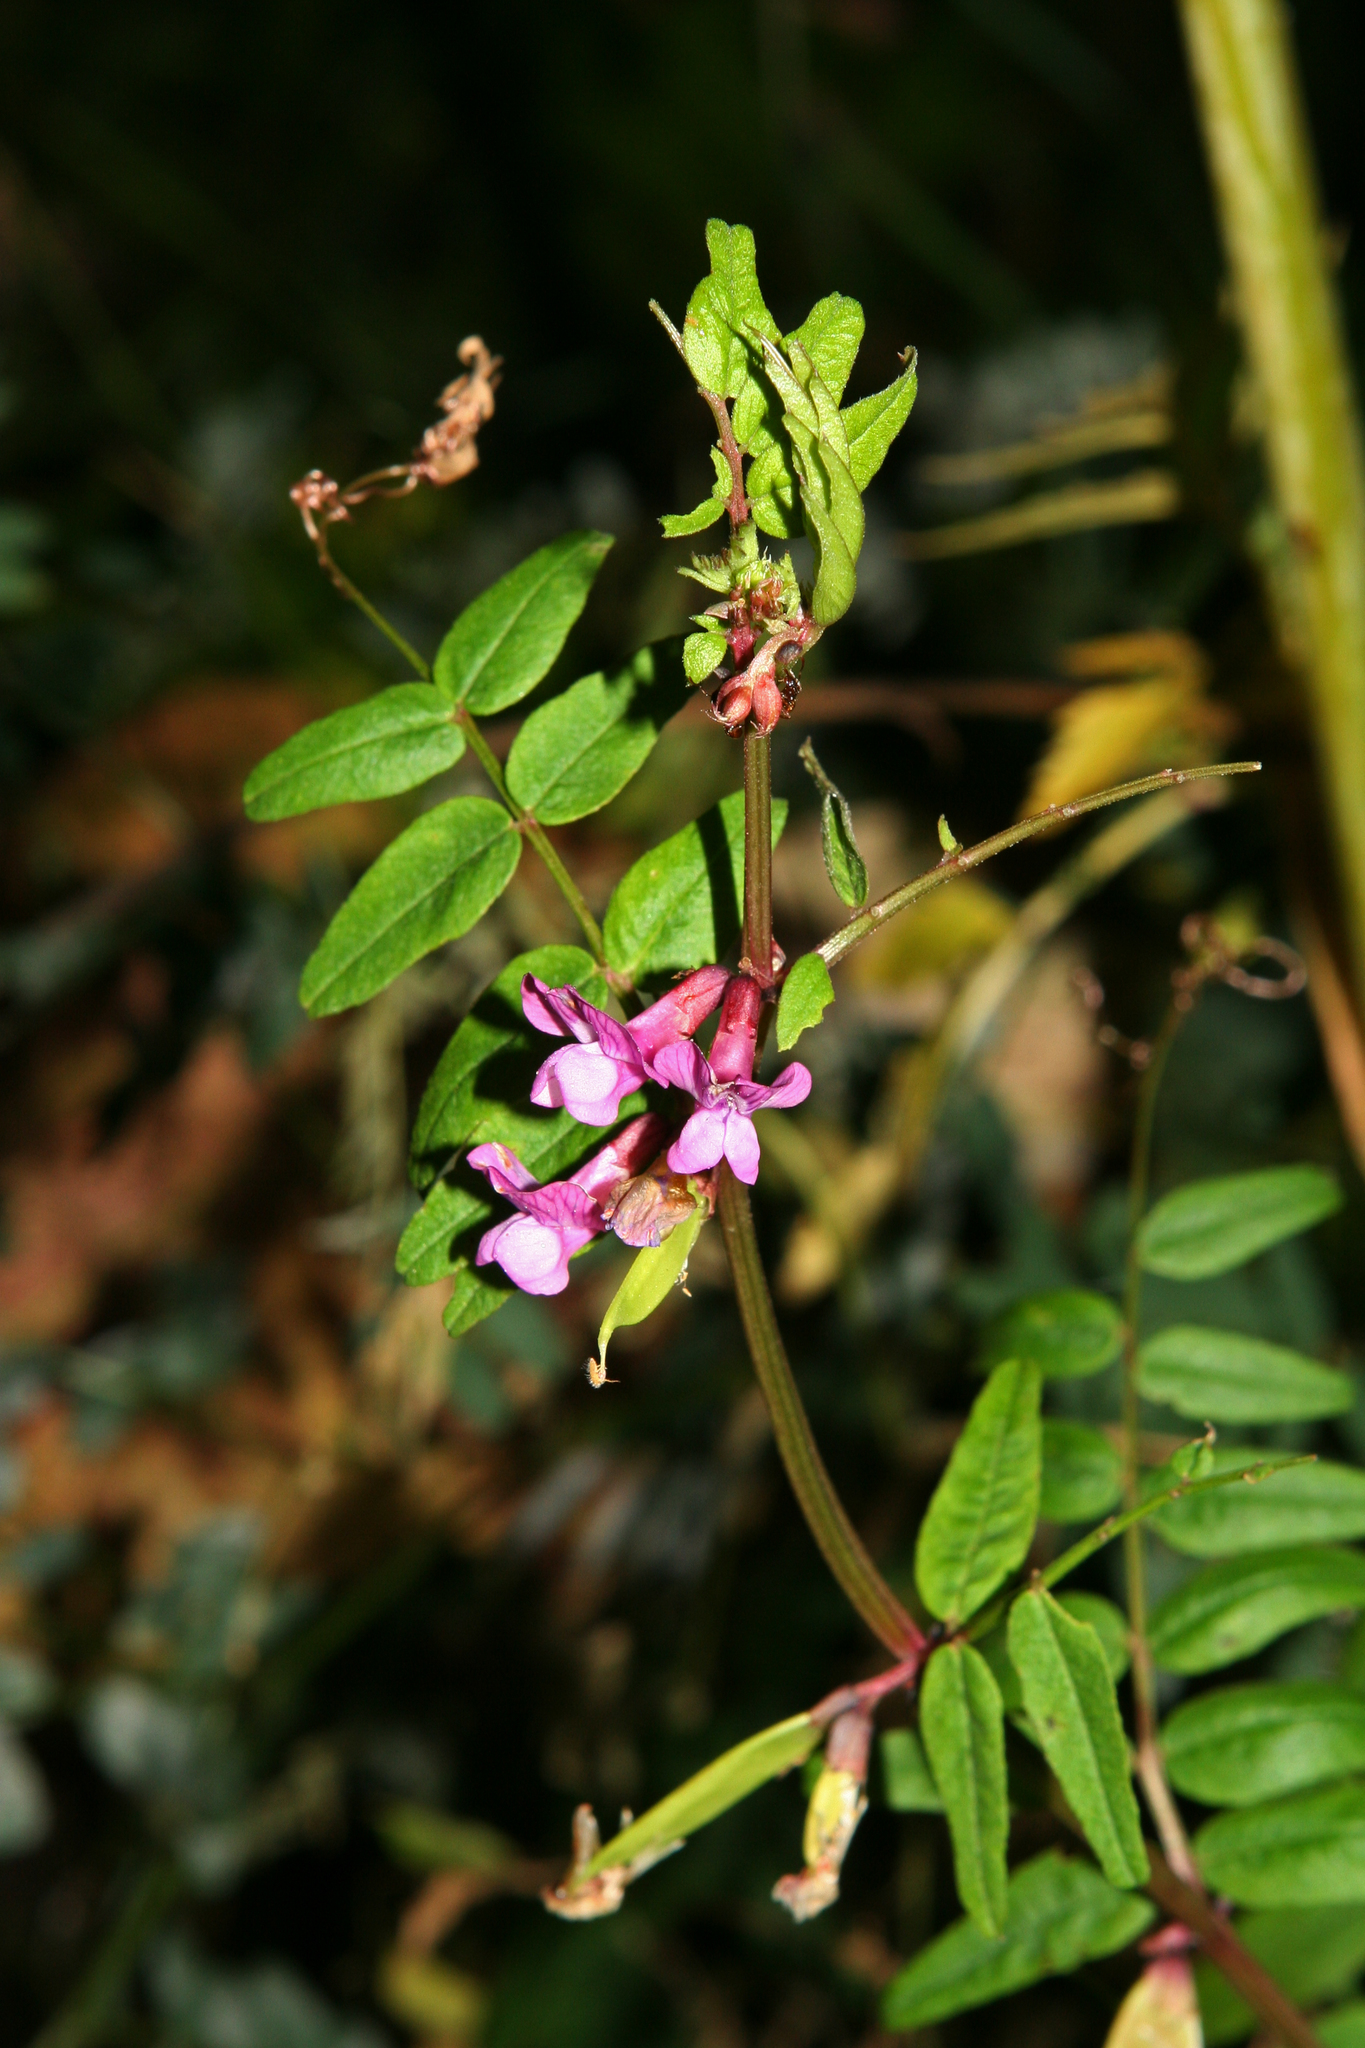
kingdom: Plantae
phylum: Tracheophyta
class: Magnoliopsida
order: Fabales
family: Fabaceae
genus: Vicia
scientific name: Vicia sepium
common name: Bush vetch
